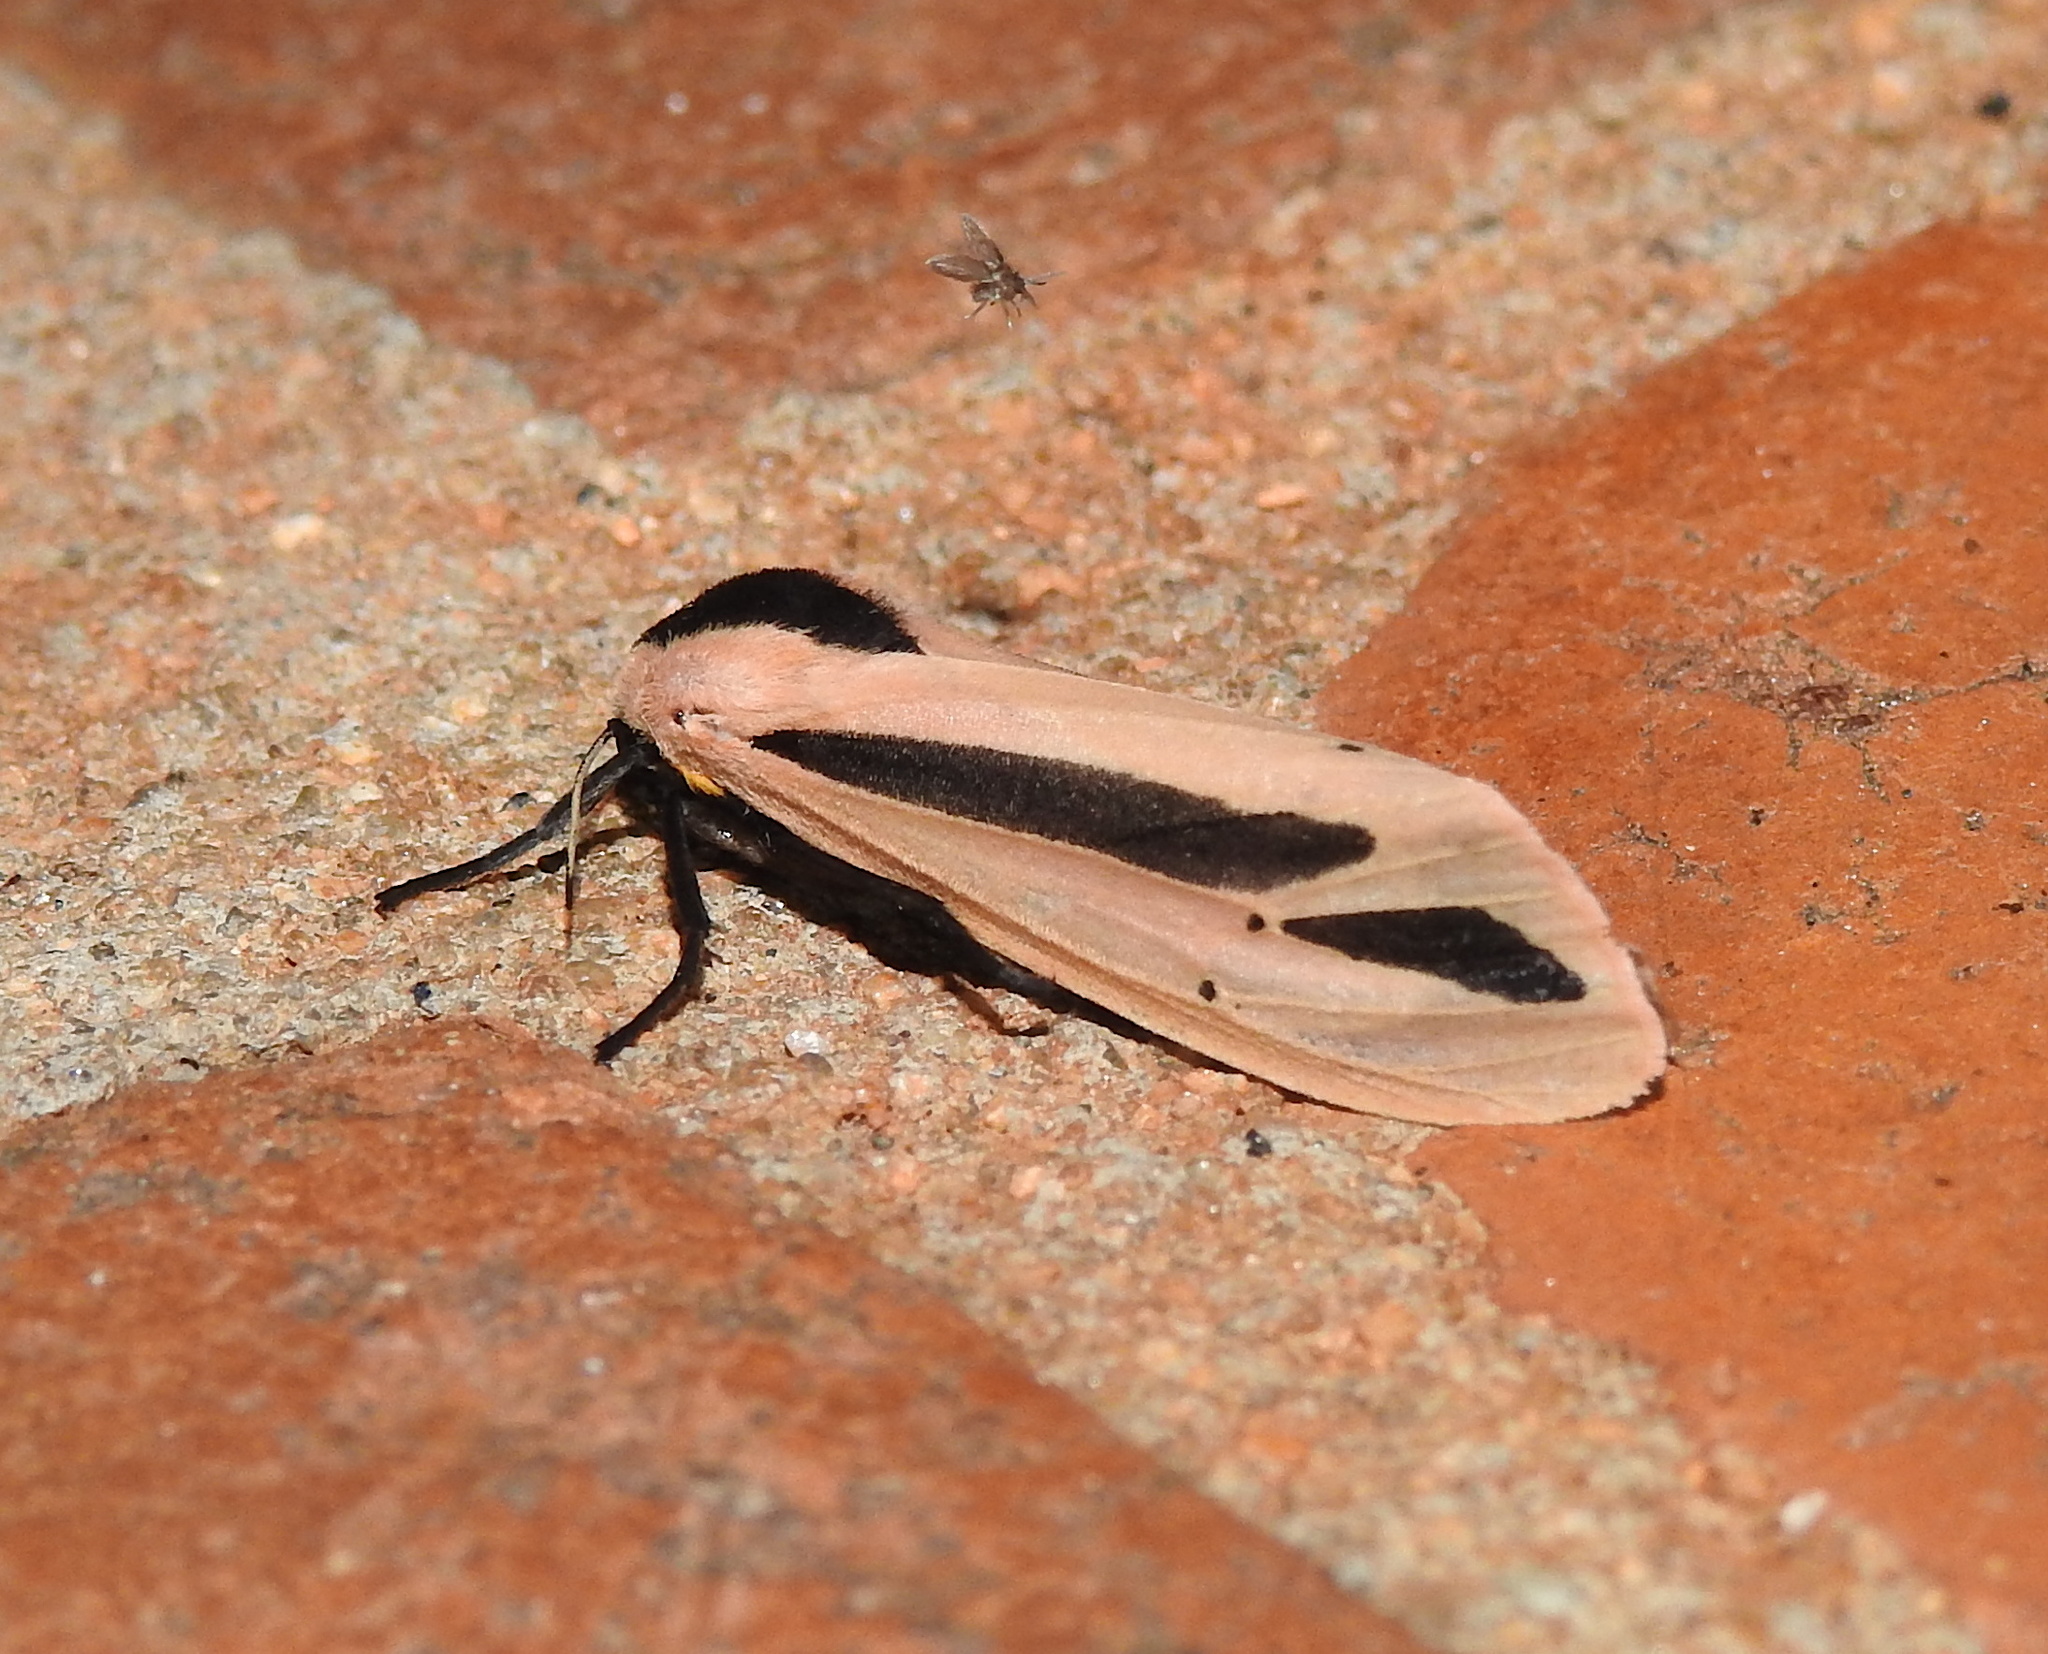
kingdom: Animalia
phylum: Arthropoda
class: Insecta
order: Lepidoptera
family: Erebidae
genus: Creatonotos
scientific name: Creatonotos
